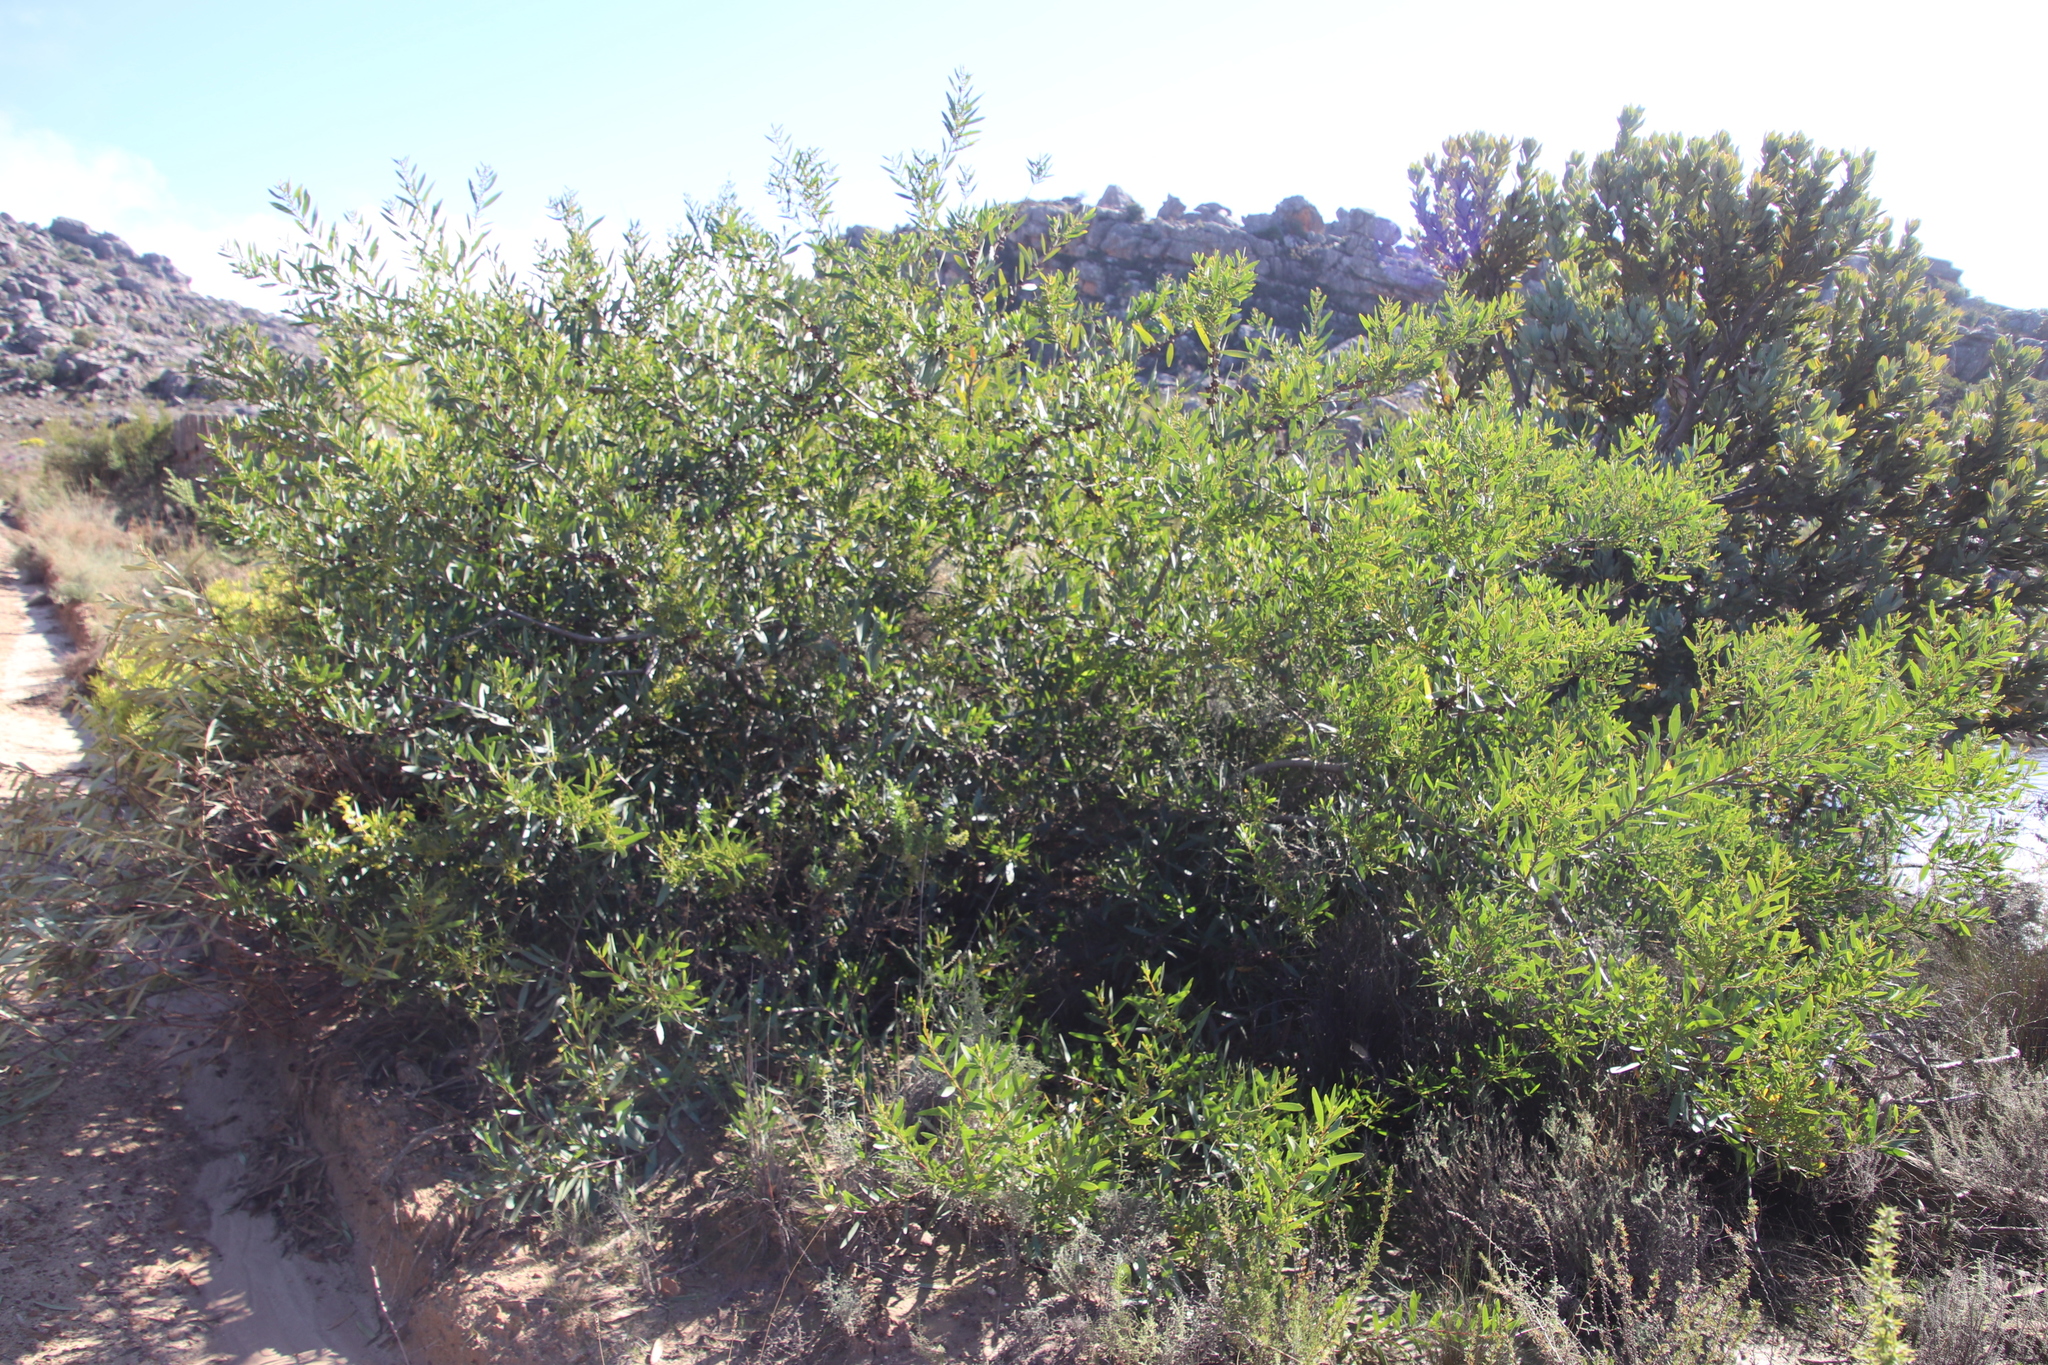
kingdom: Plantae
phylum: Tracheophyta
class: Magnoliopsida
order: Fabales
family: Fabaceae
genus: Acacia
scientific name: Acacia longifolia
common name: Sydney golden wattle
